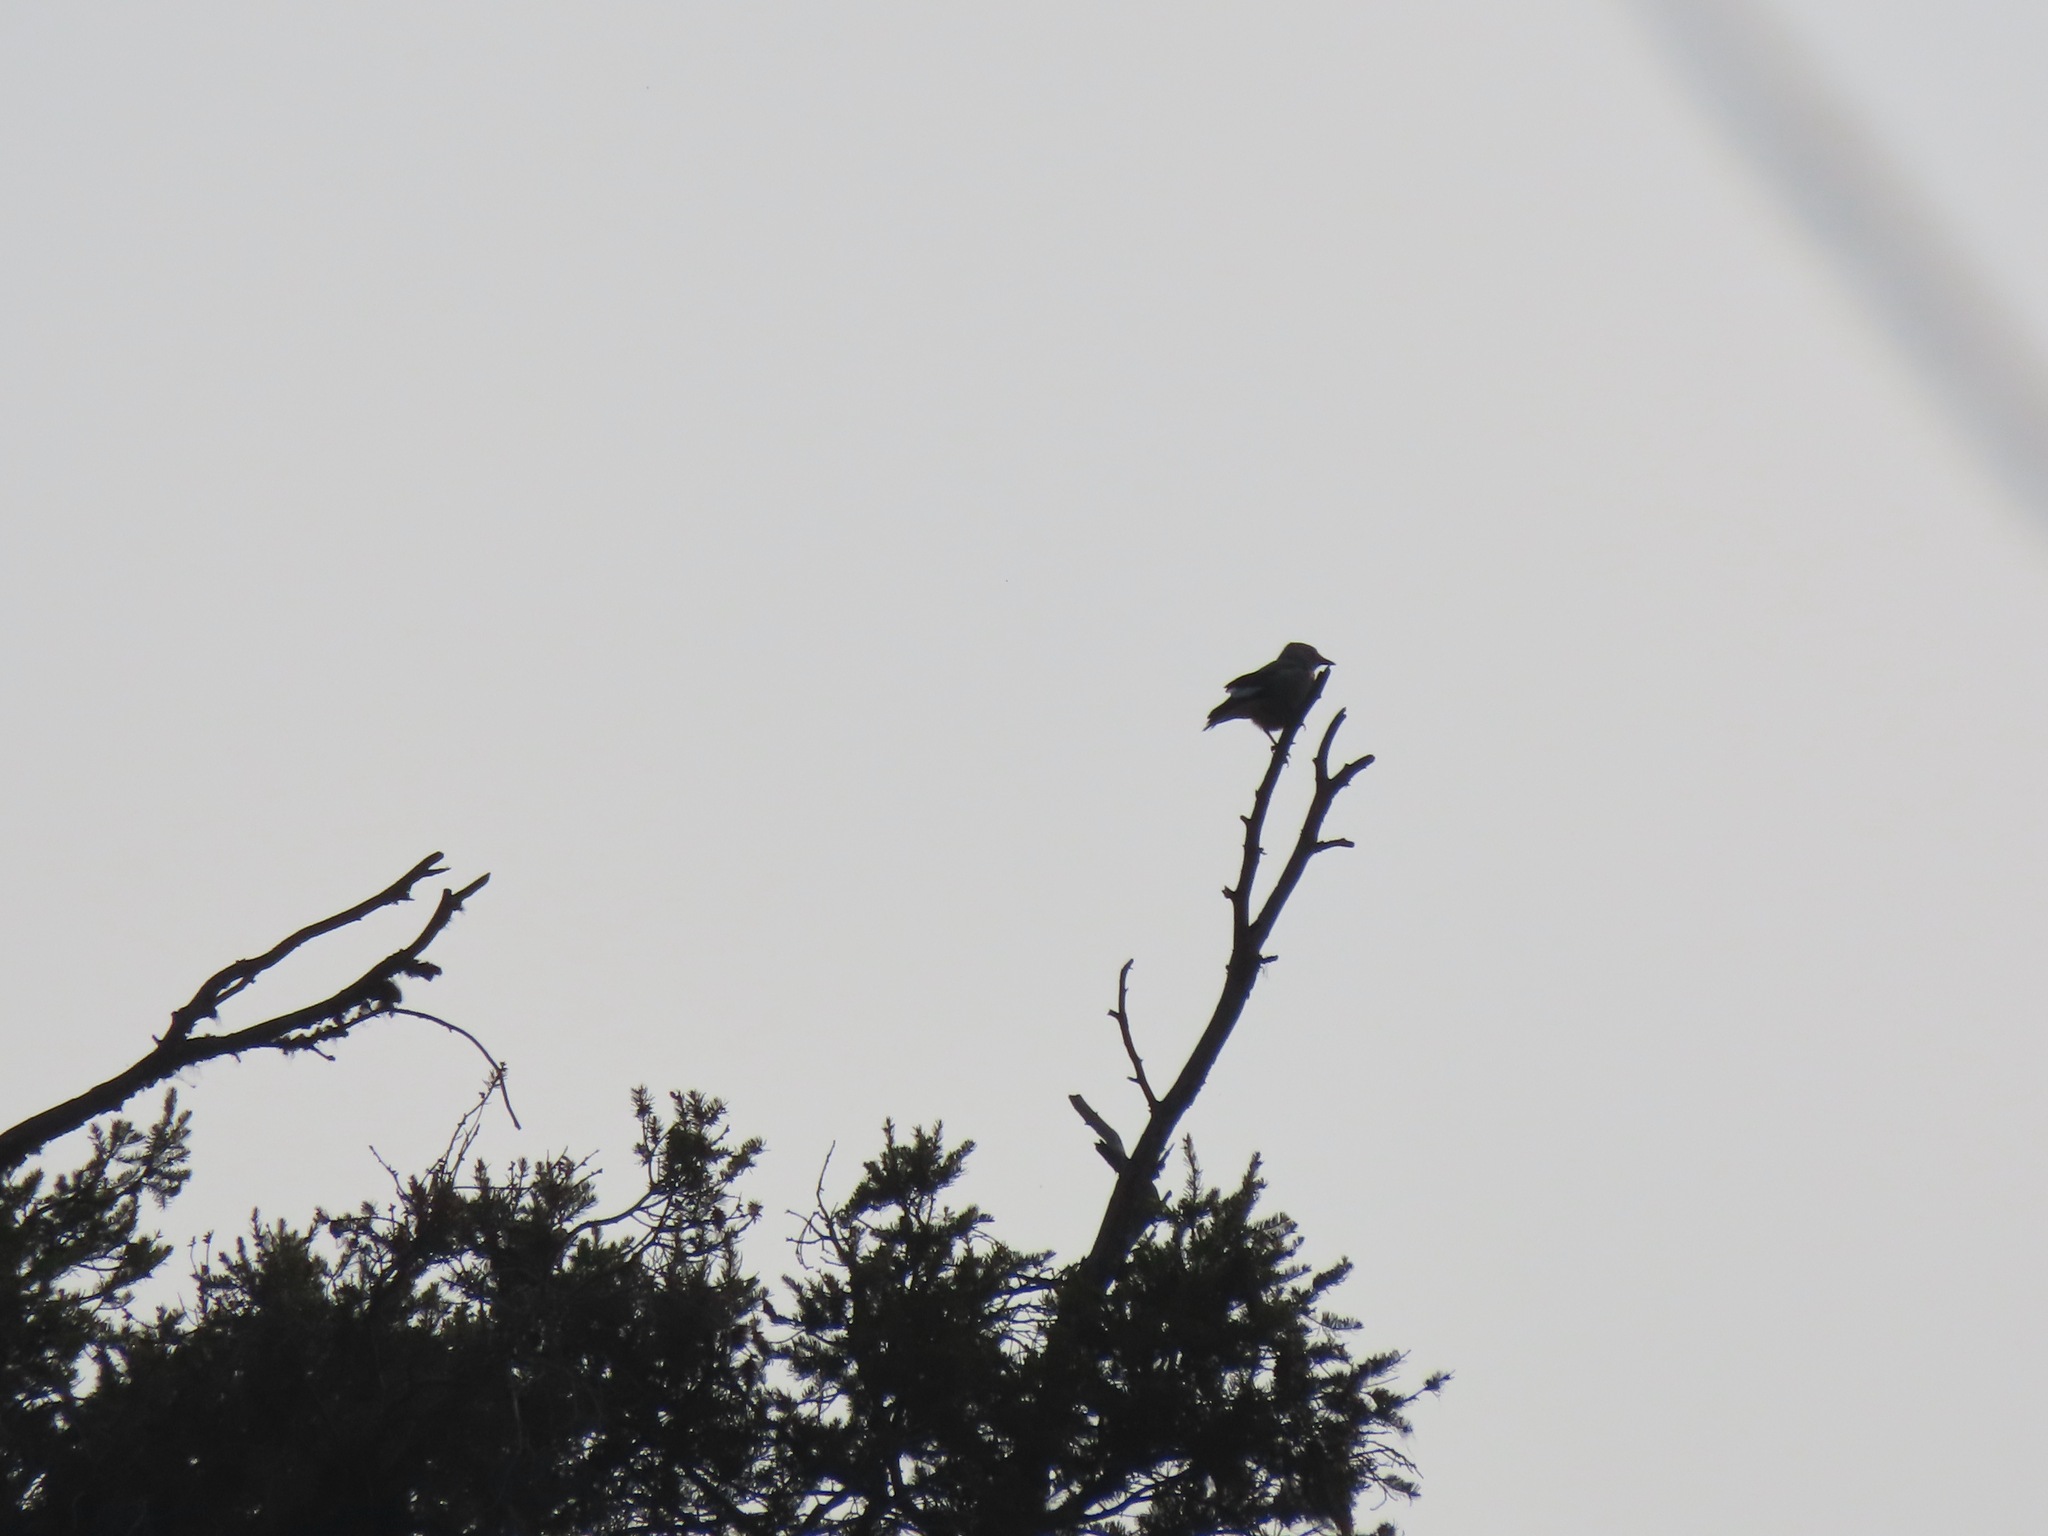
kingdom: Animalia
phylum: Chordata
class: Aves
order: Passeriformes
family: Corvidae
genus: Nucifraga
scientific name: Nucifraga columbiana
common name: Clark's nutcracker
